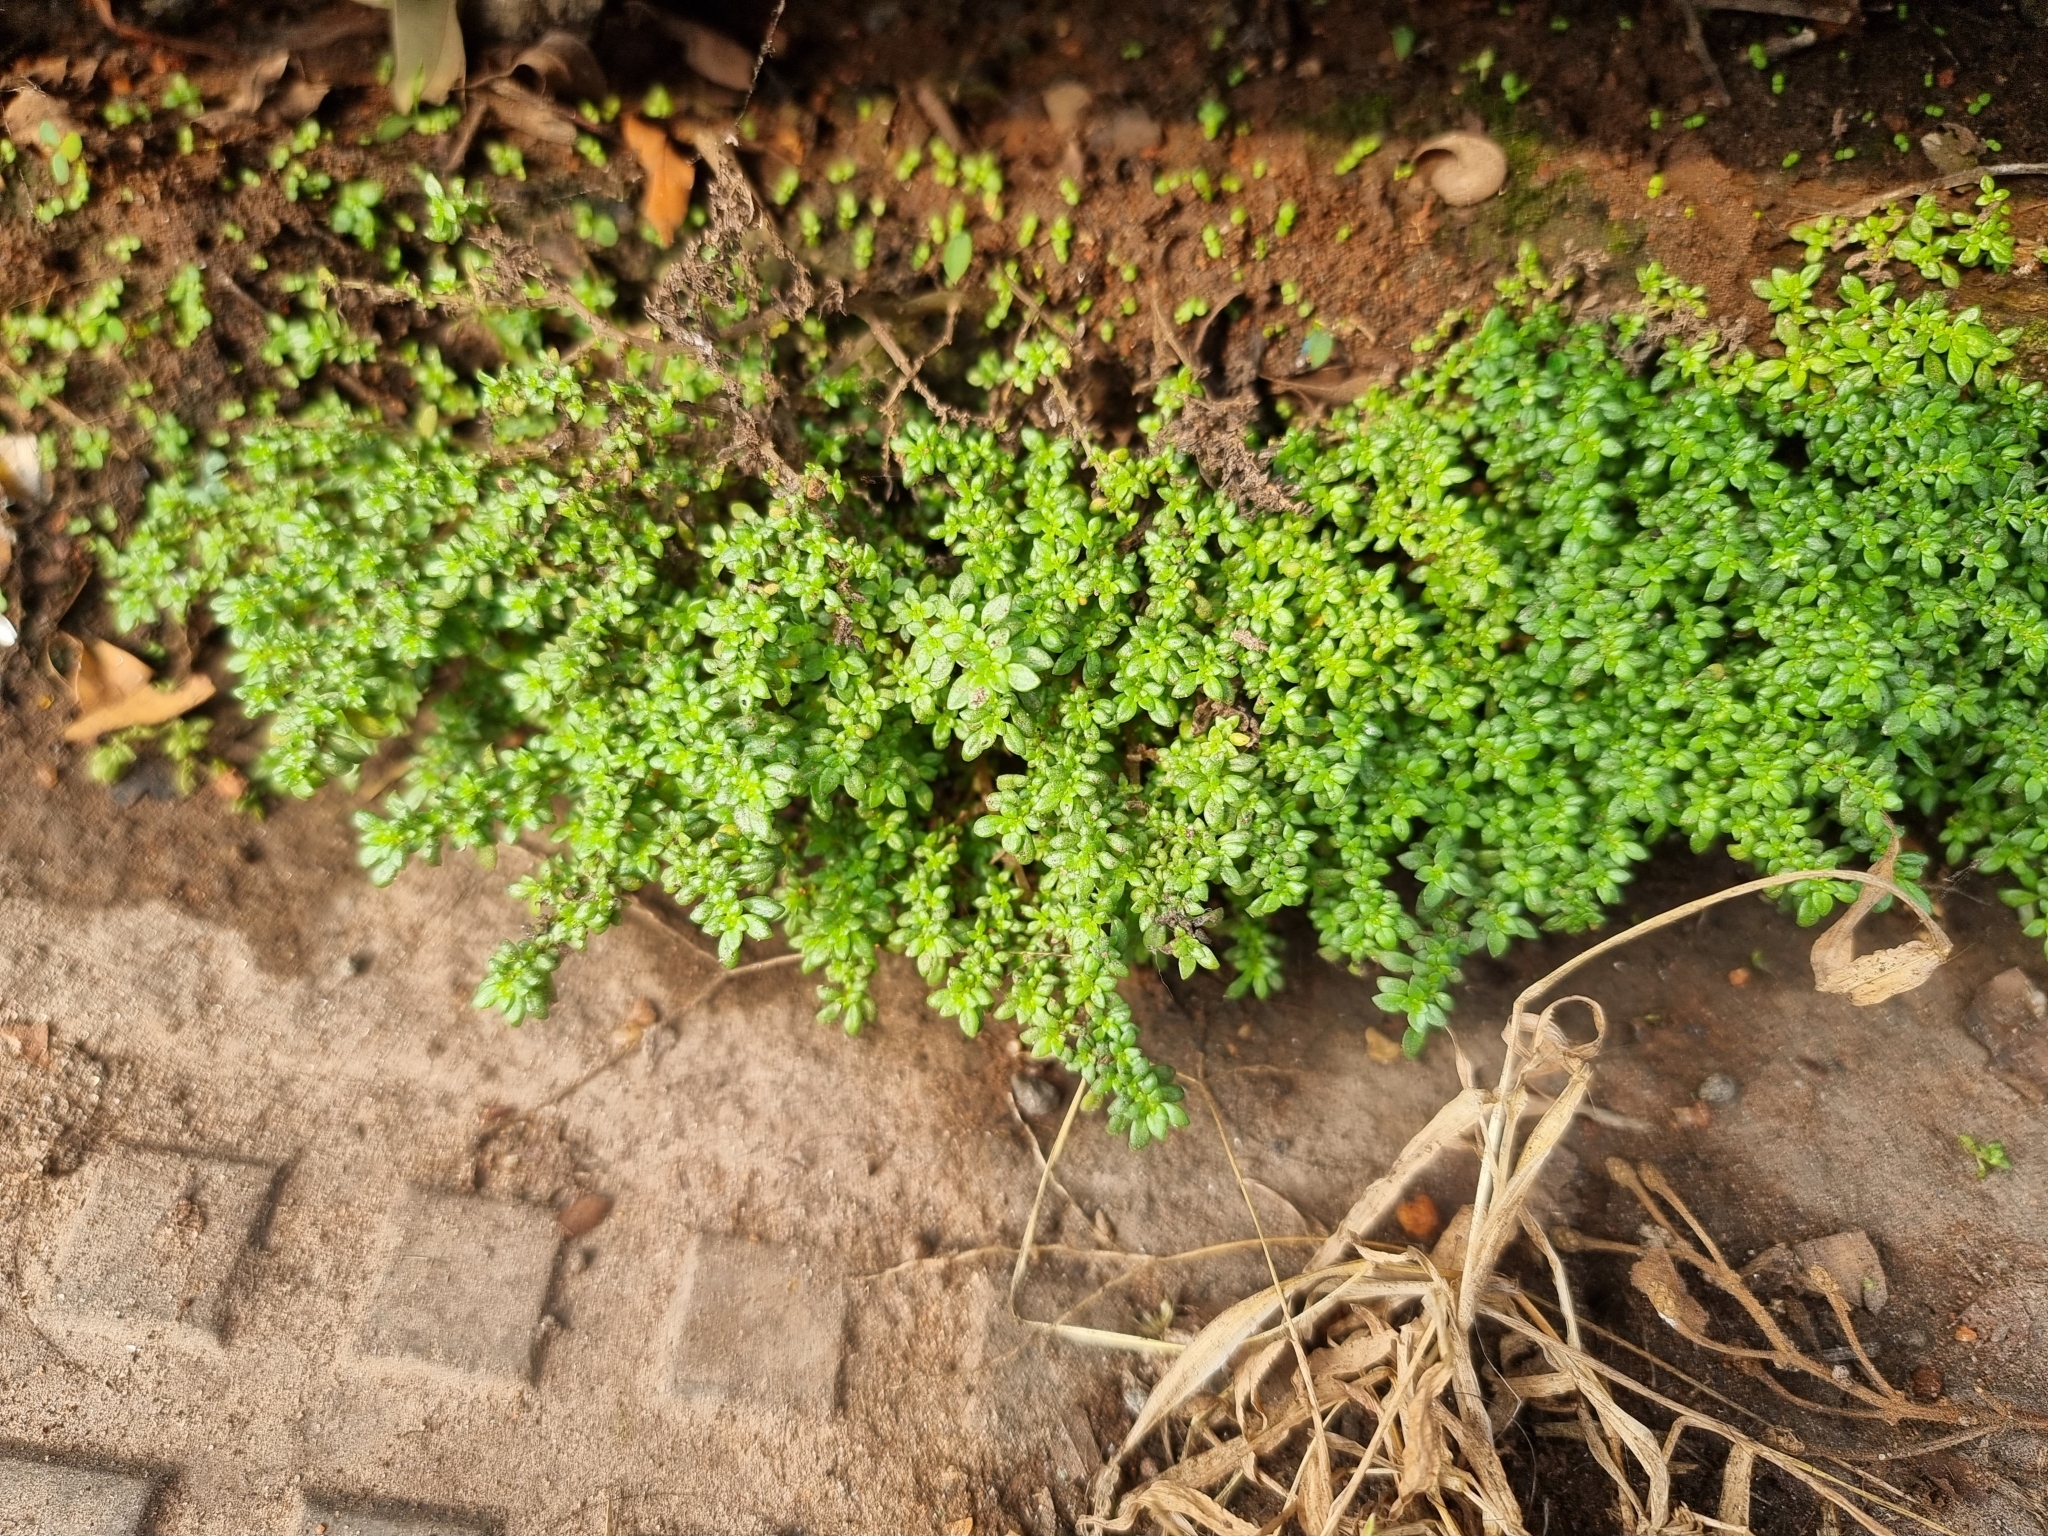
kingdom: Plantae
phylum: Tracheophyta
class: Magnoliopsida
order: Rosales
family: Urticaceae
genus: Pilea
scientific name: Pilea microphylla
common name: Artillery-plant
